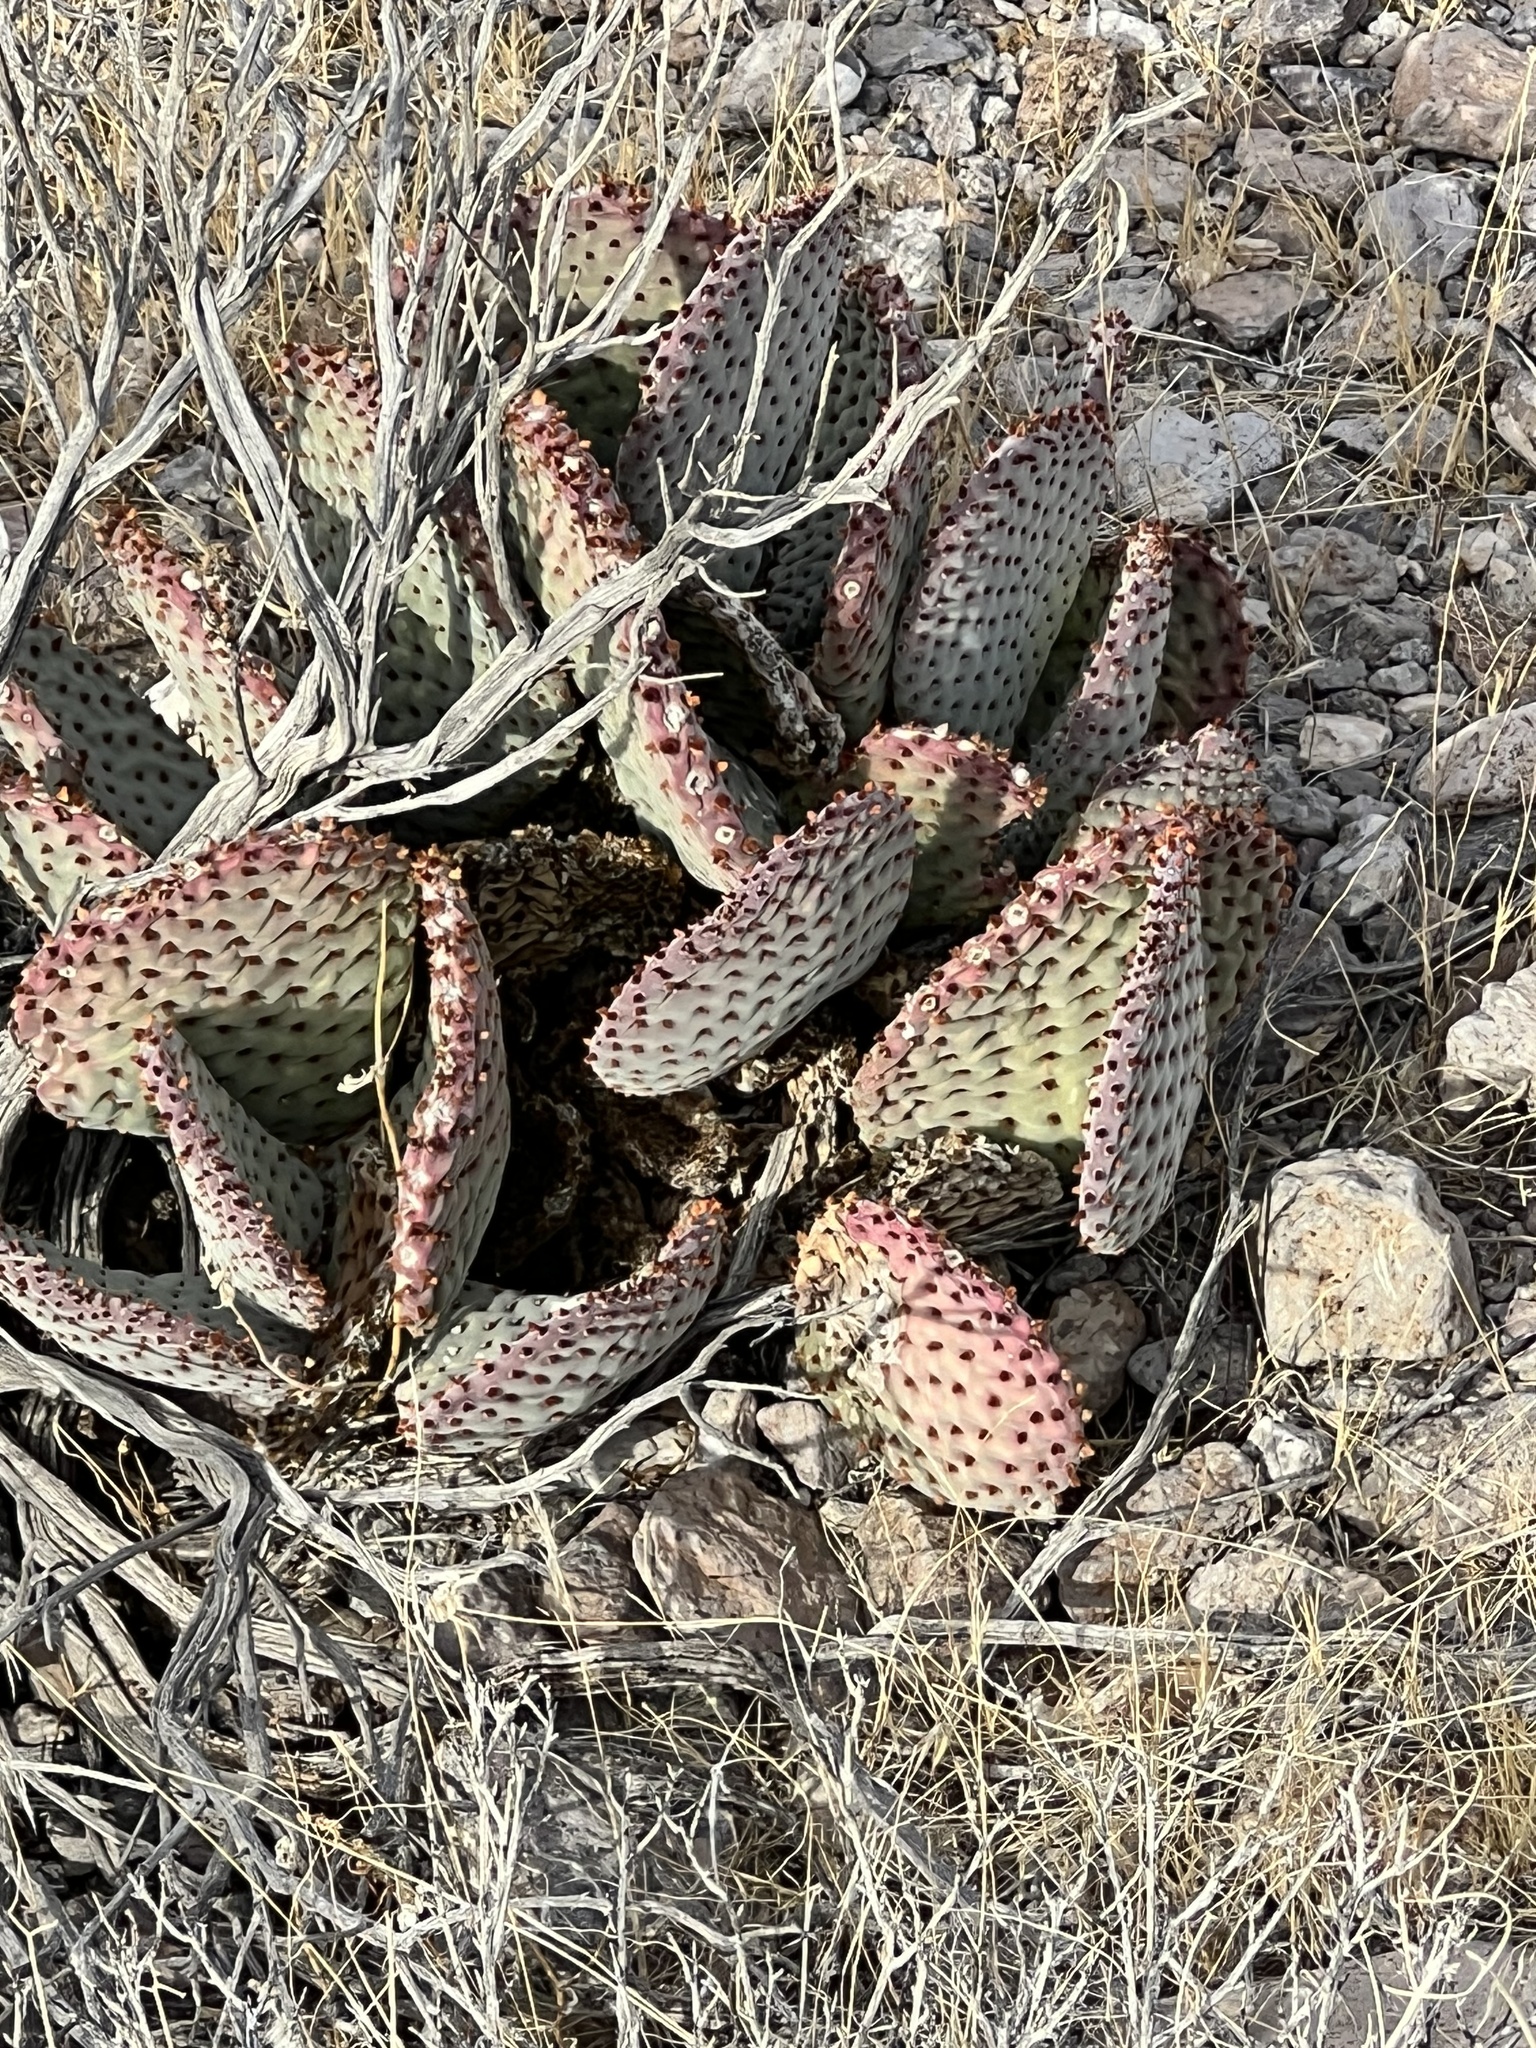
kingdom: Plantae
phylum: Tracheophyta
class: Magnoliopsida
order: Caryophyllales
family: Cactaceae
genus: Opuntia
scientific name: Opuntia basilaris
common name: Beavertail prickly-pear
